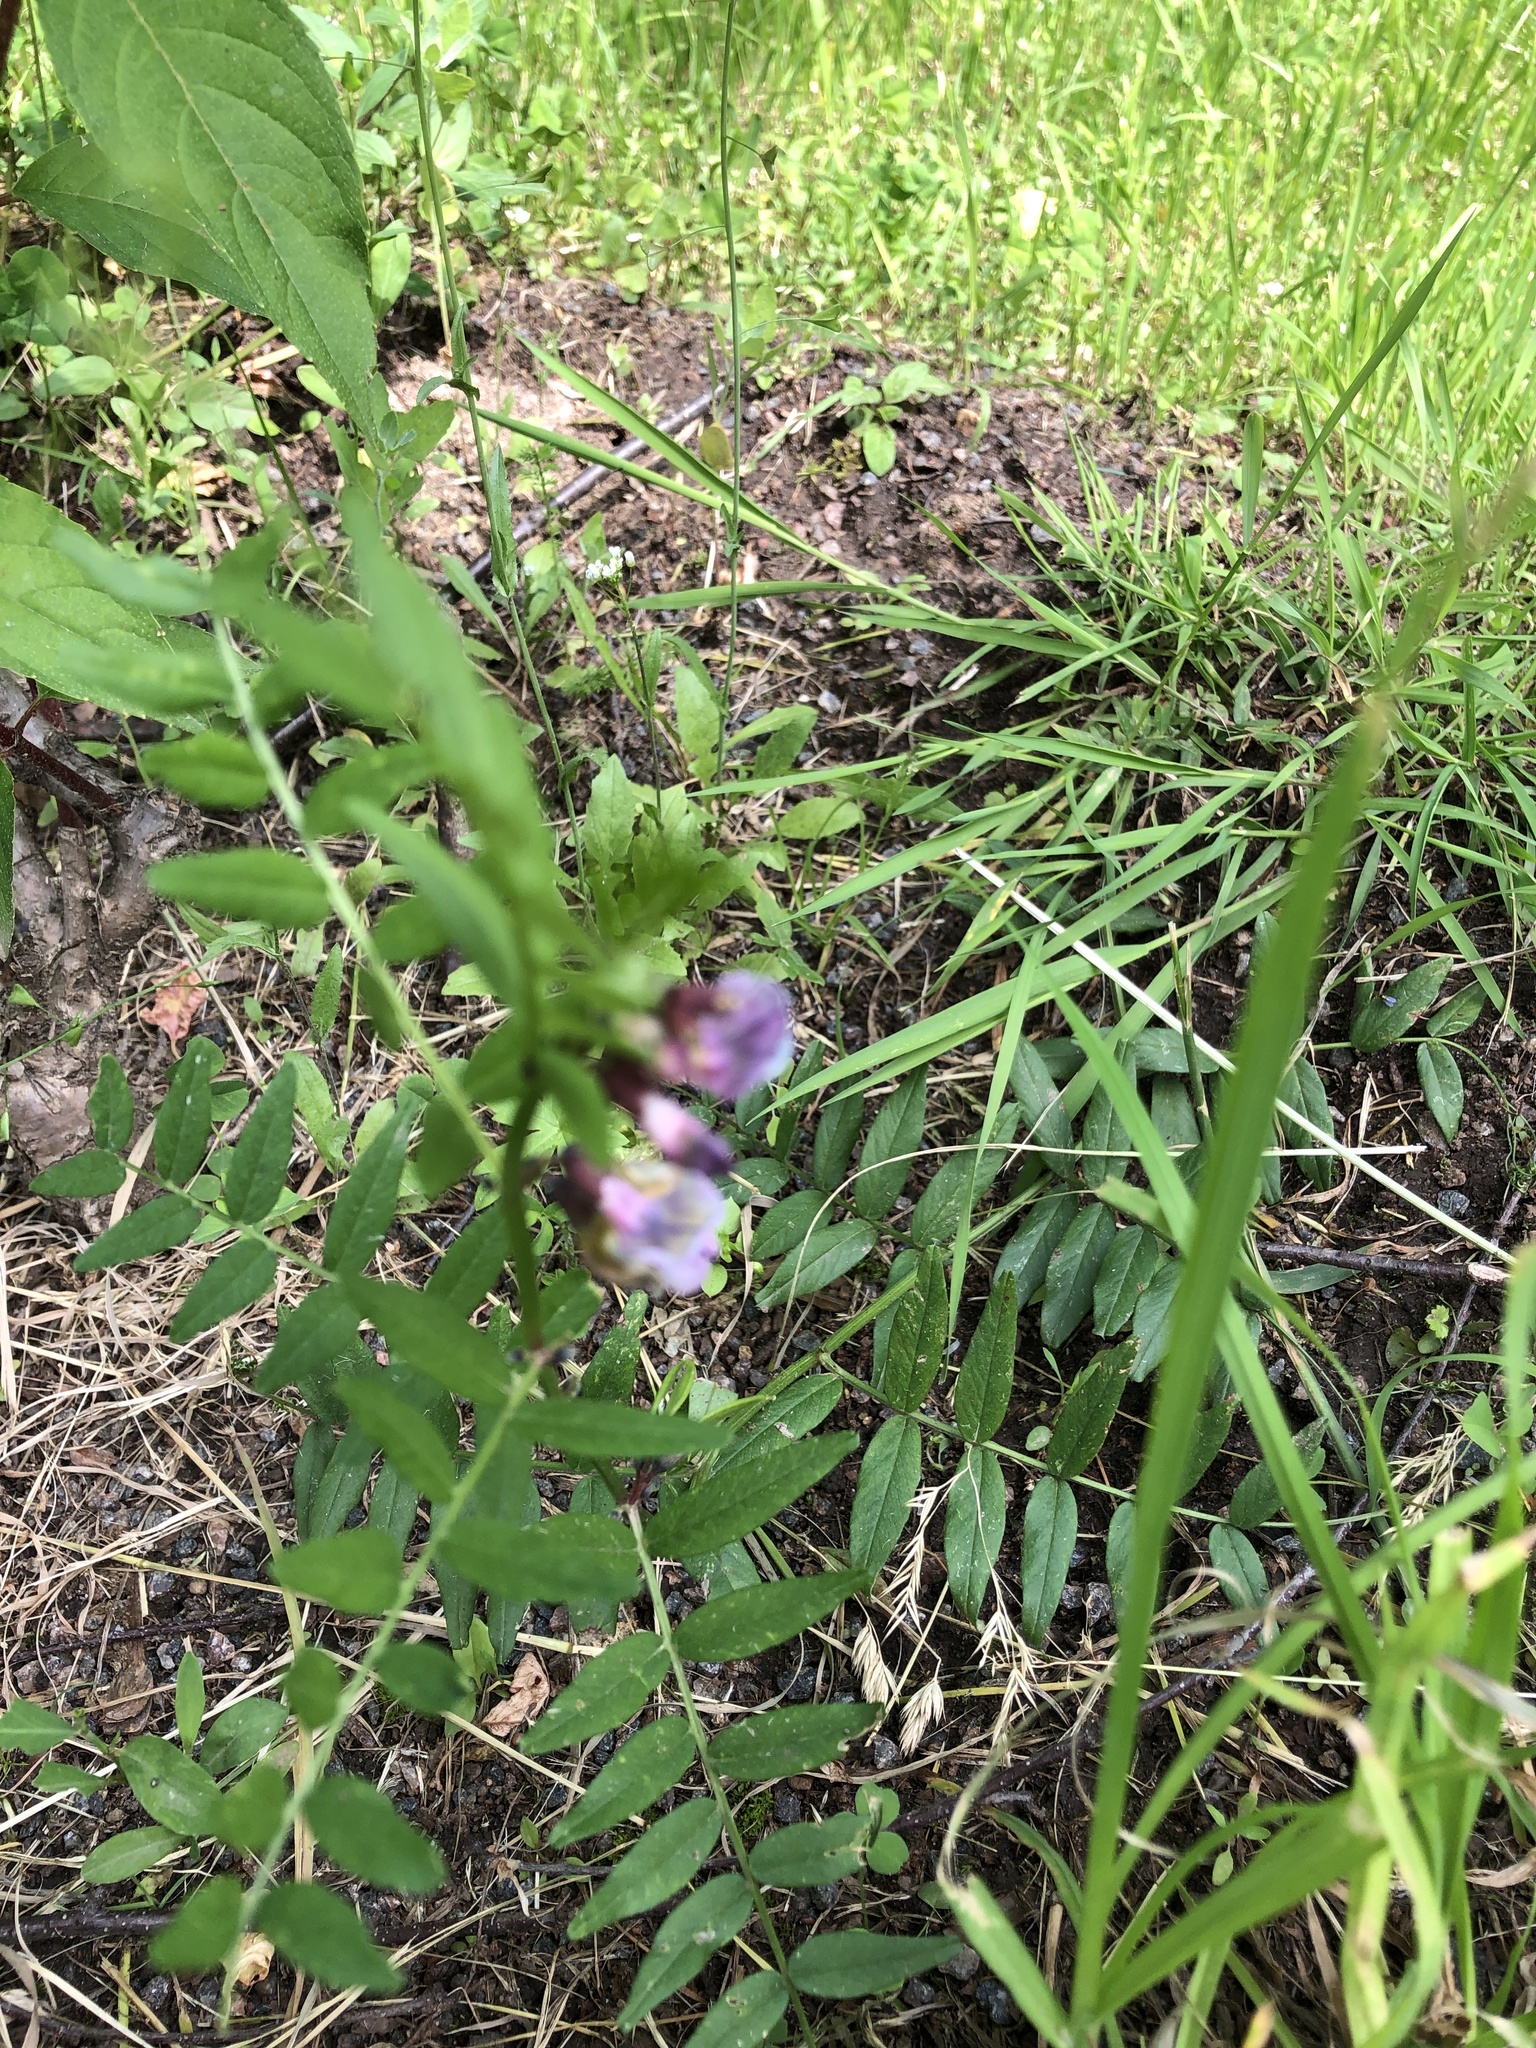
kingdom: Plantae
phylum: Tracheophyta
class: Magnoliopsida
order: Fabales
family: Fabaceae
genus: Vicia
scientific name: Vicia sepium
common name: Bush vetch
